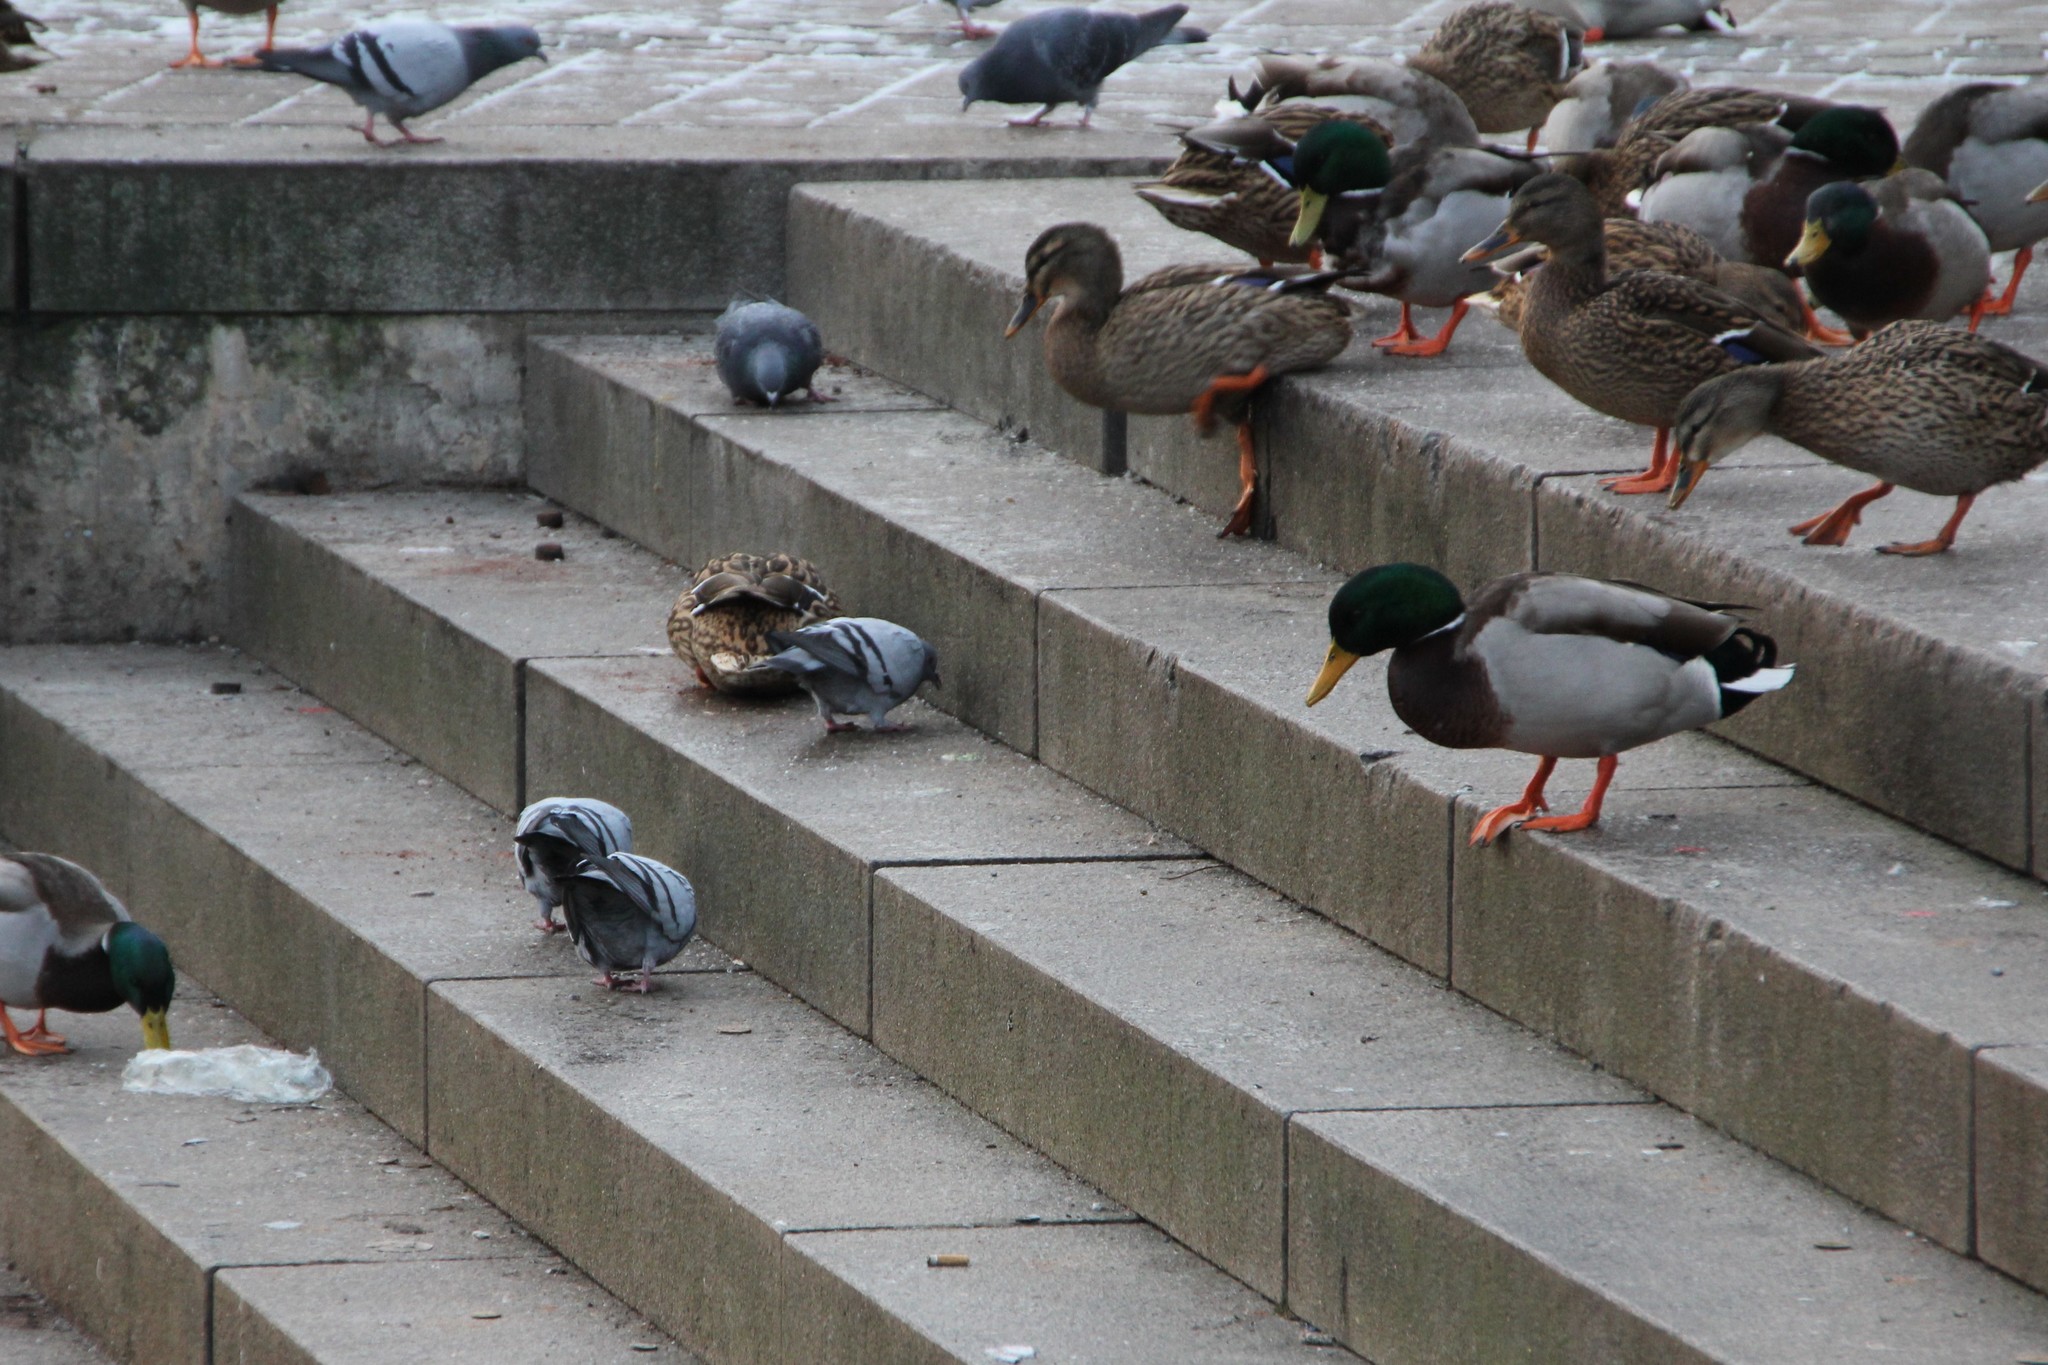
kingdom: Animalia
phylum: Chordata
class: Aves
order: Columbiformes
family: Columbidae
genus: Columba
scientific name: Columba livia
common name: Rock pigeon
